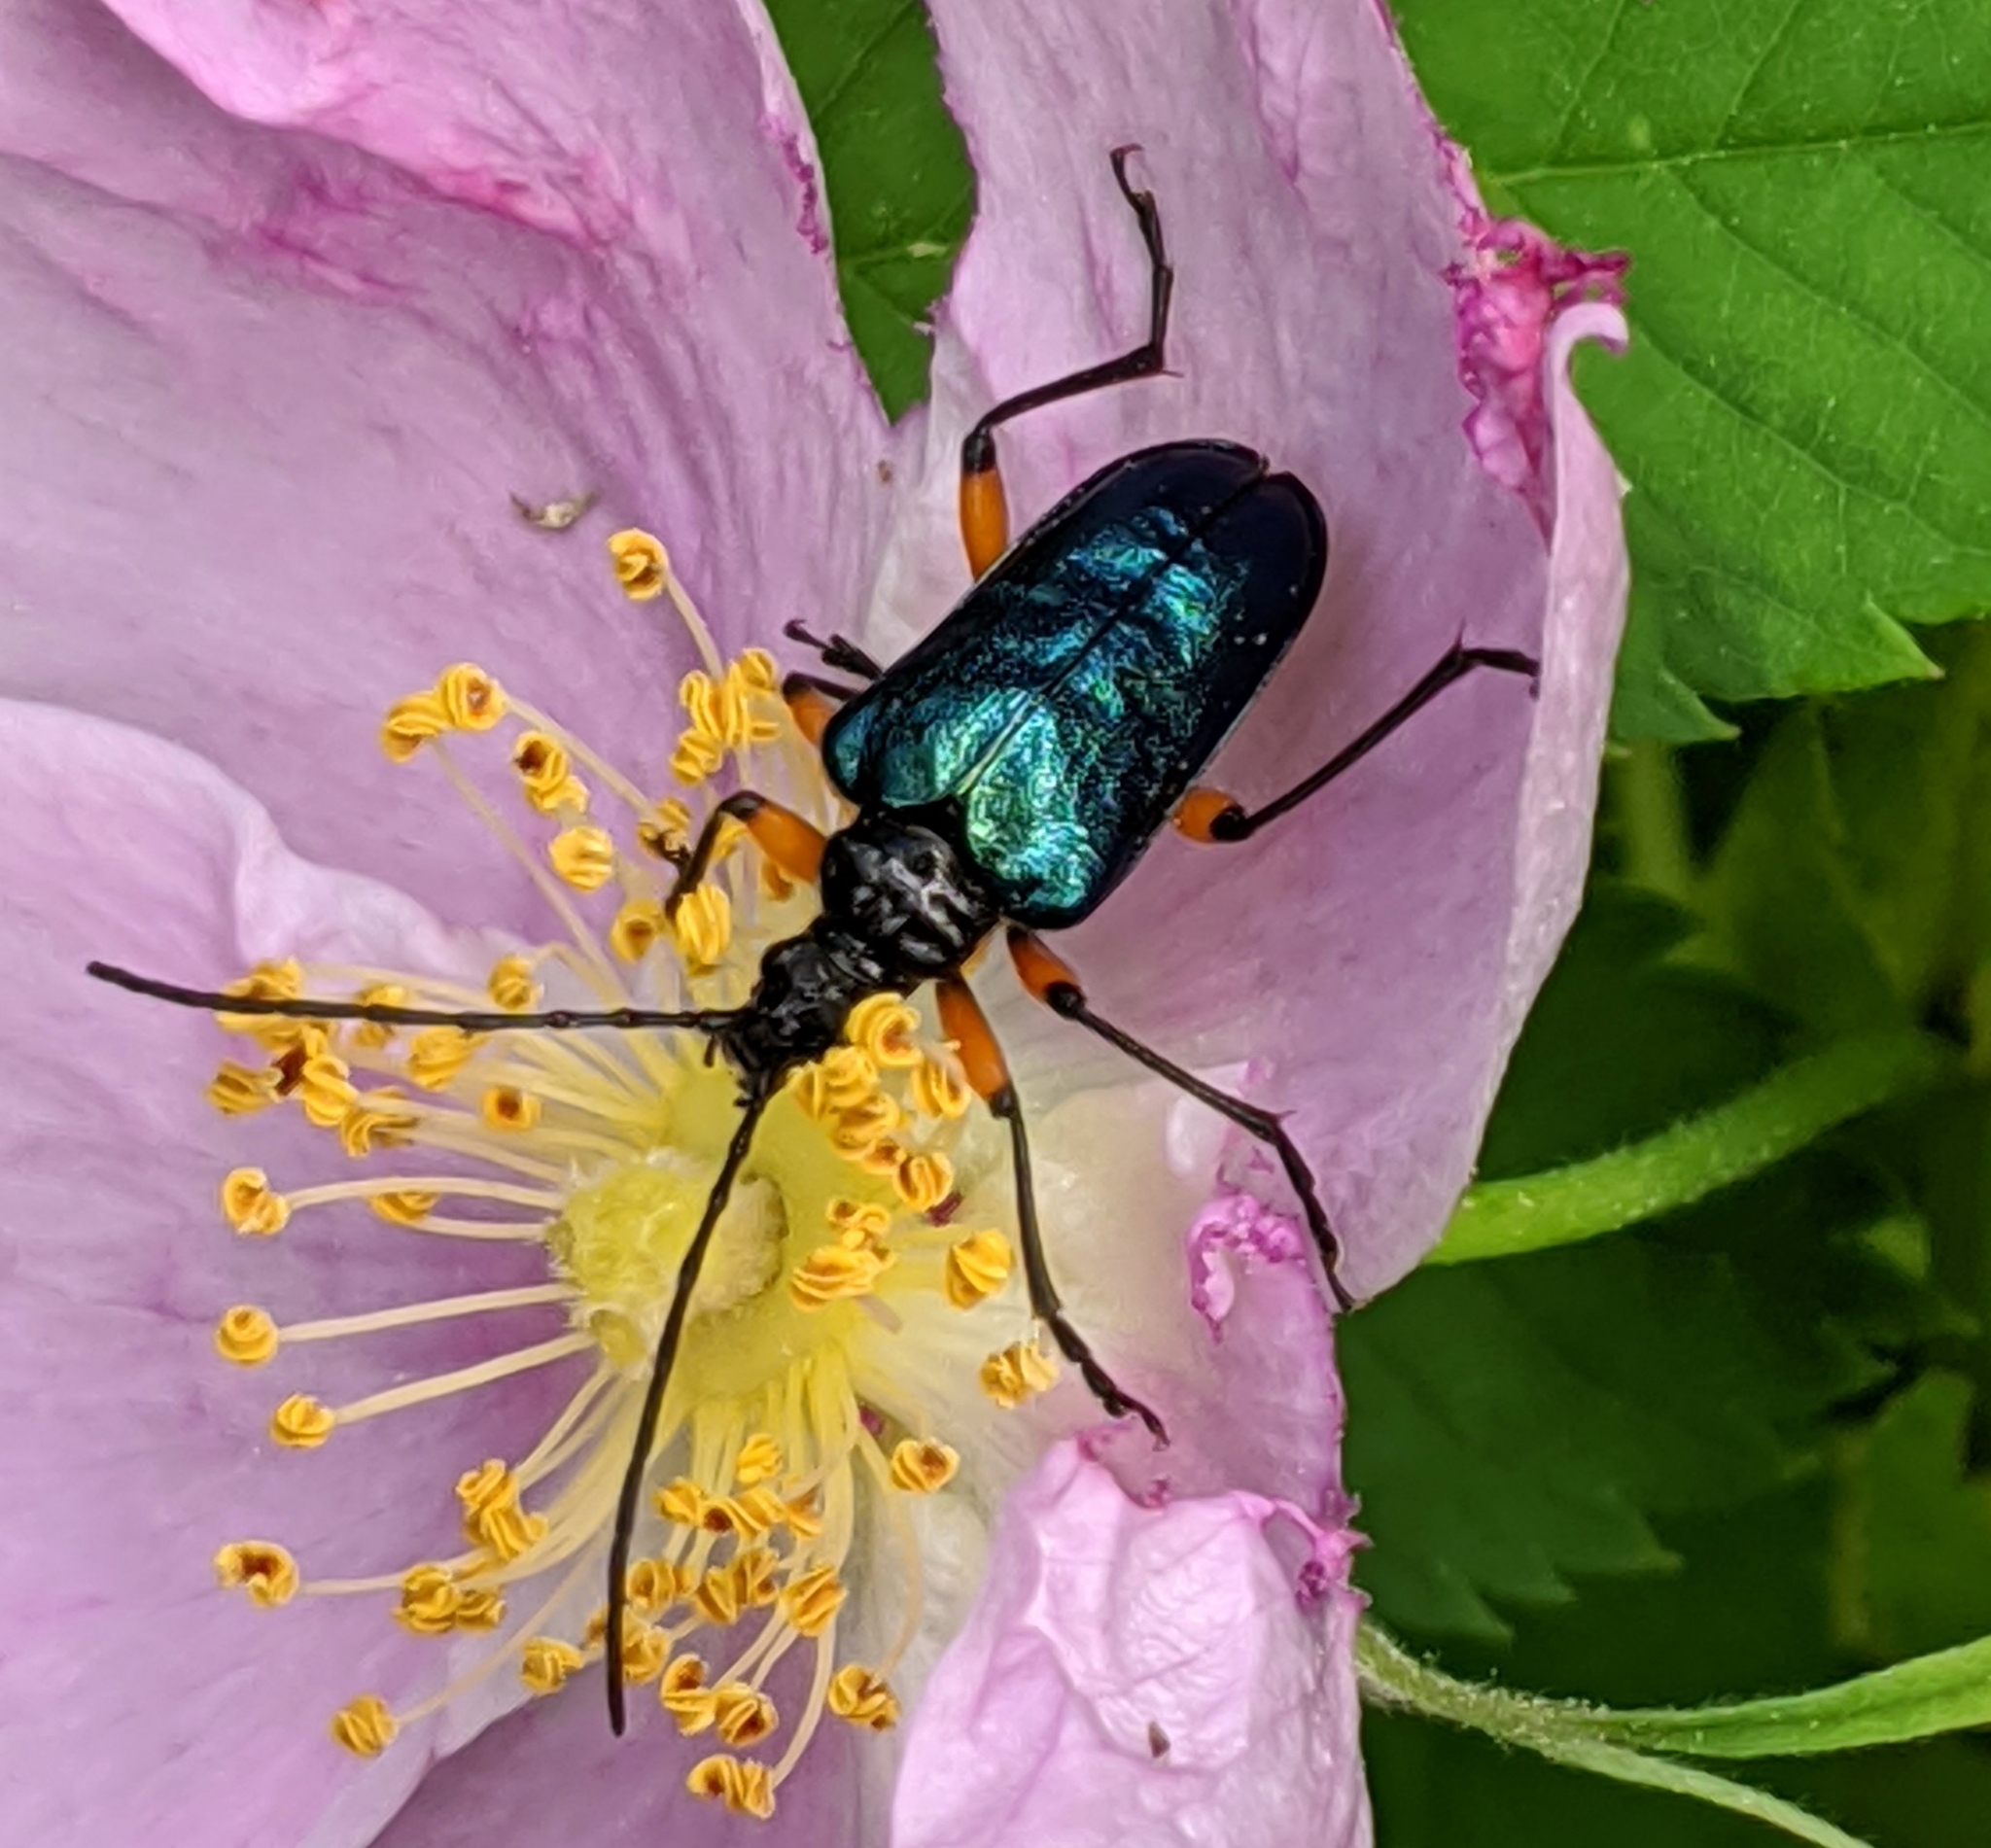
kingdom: Animalia
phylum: Arthropoda
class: Insecta
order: Coleoptera
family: Cerambycidae
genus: Pseudogaurotina
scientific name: Pseudogaurotina cressoni
